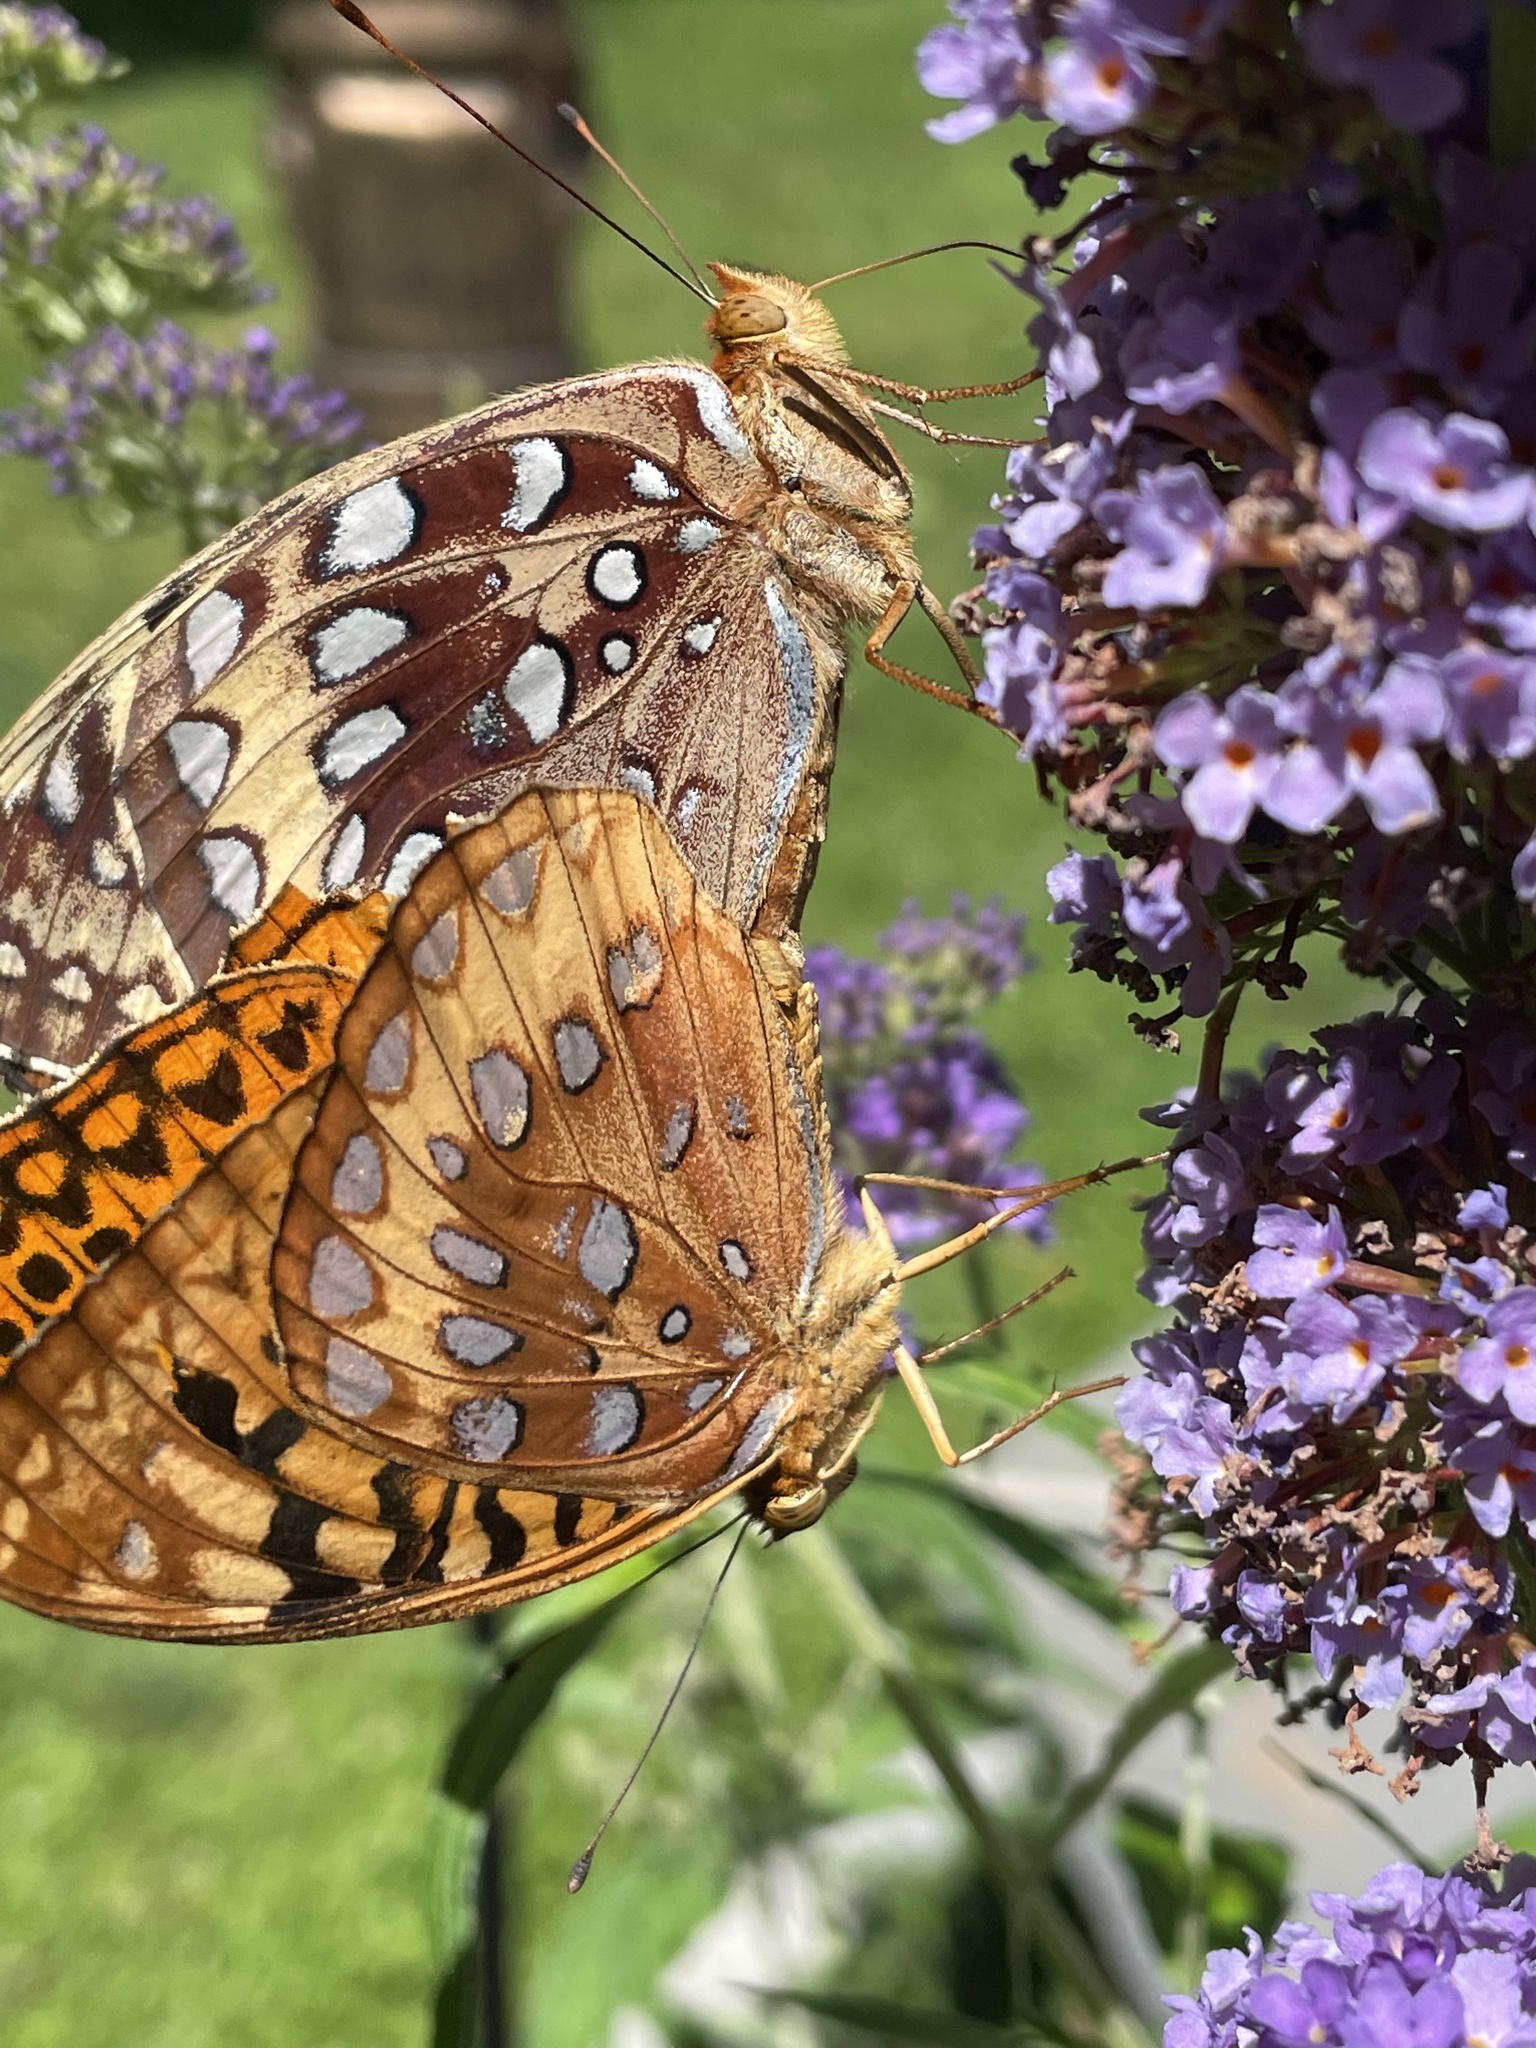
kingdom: Animalia
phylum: Arthropoda
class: Insecta
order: Lepidoptera
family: Nymphalidae
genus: Speyeria
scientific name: Speyeria cybele
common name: Great spangled fritillary
